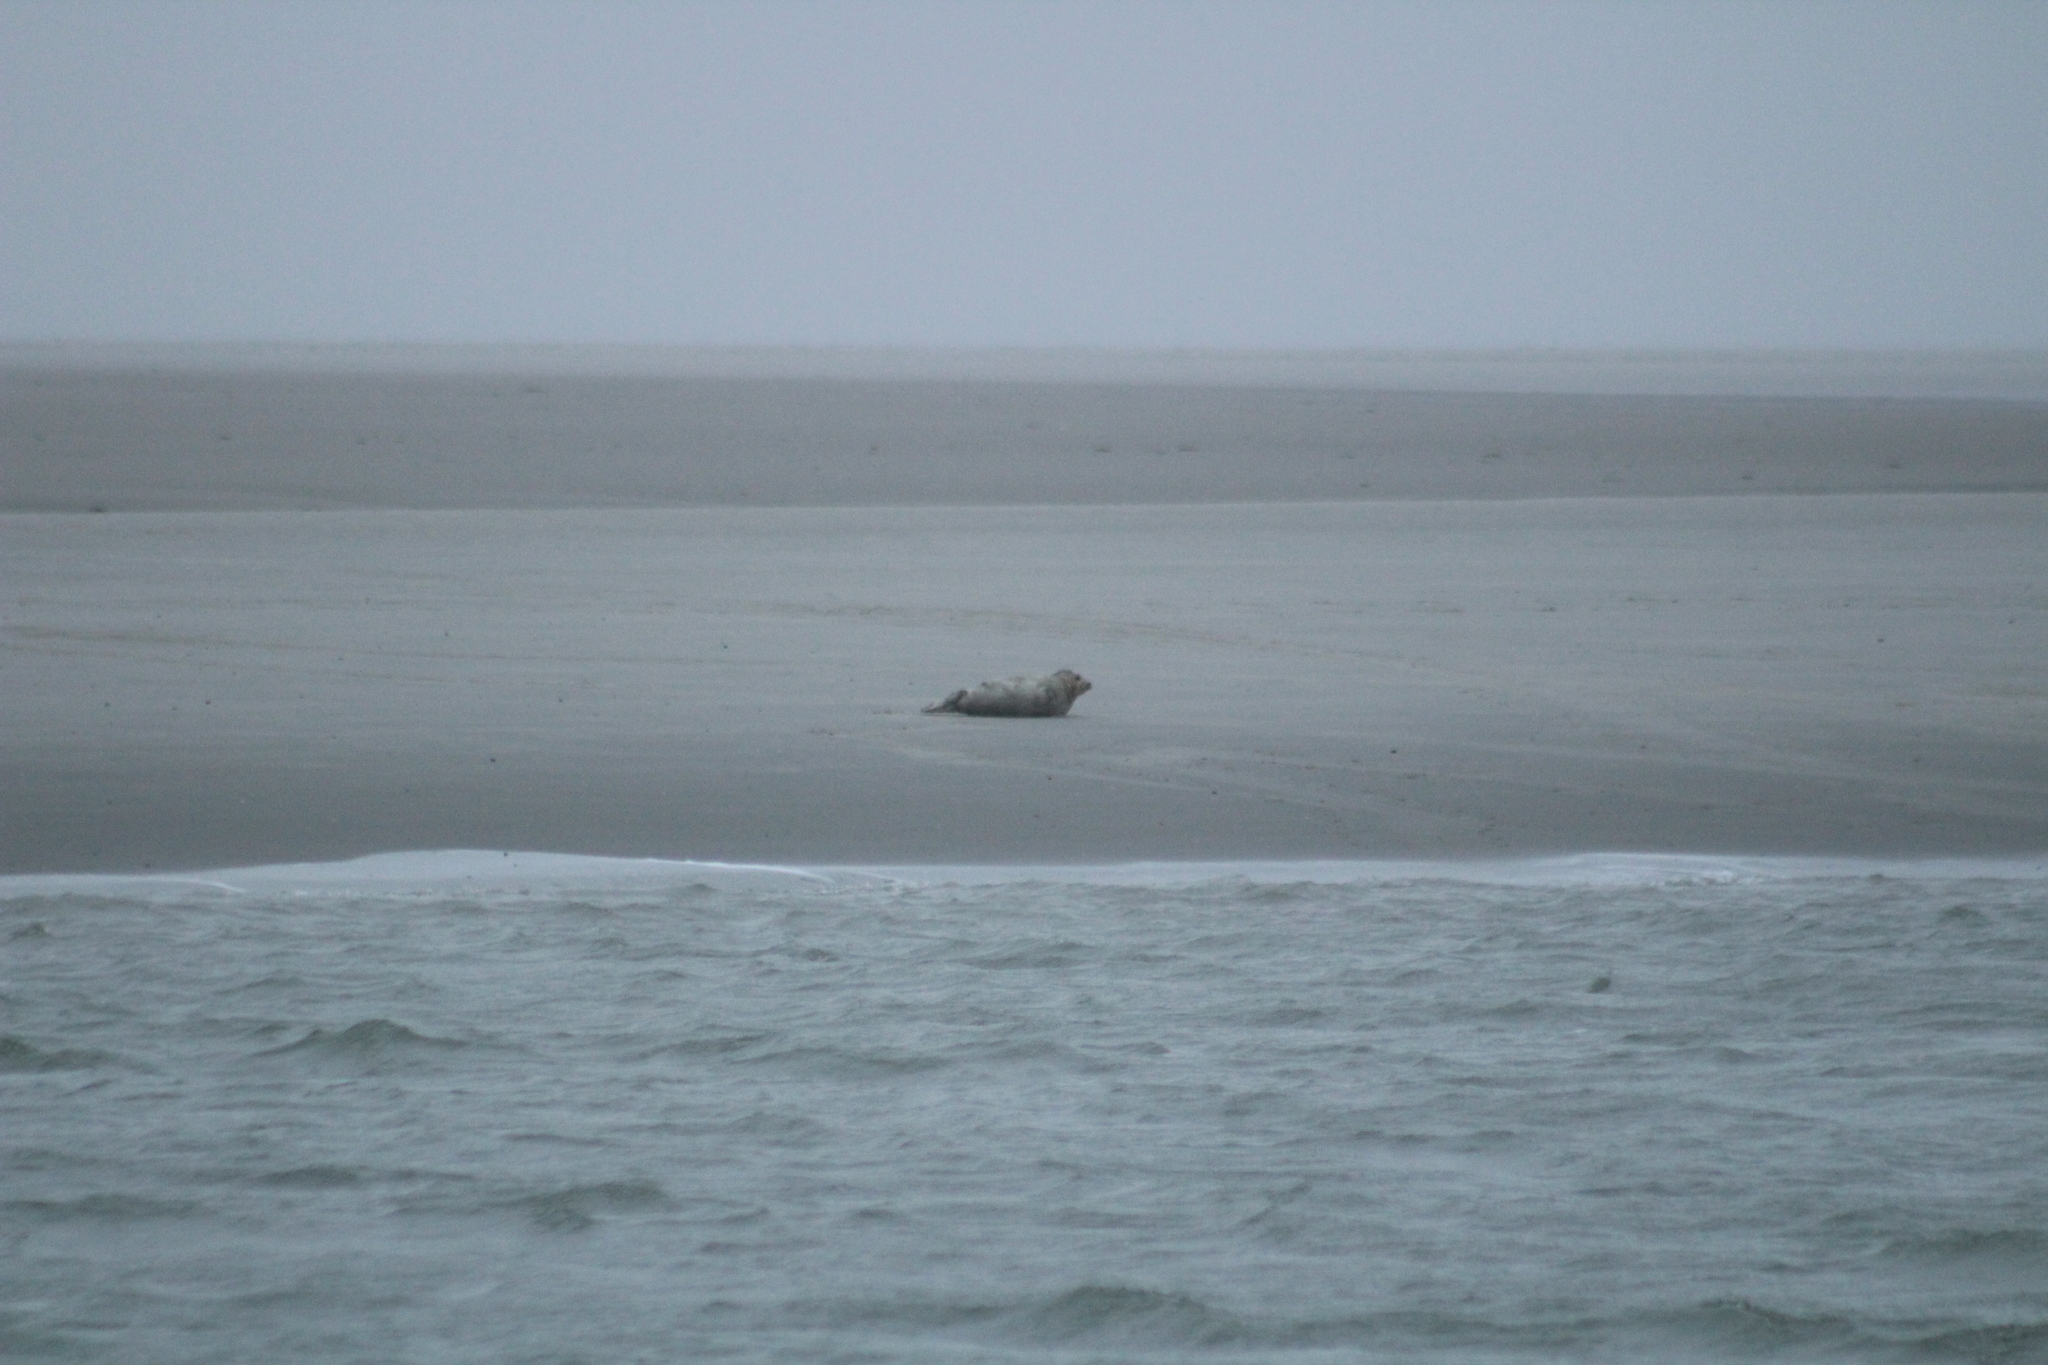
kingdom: Animalia
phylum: Chordata
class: Mammalia
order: Carnivora
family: Phocidae
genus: Phoca
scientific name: Phoca vitulina
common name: Harbor seal
